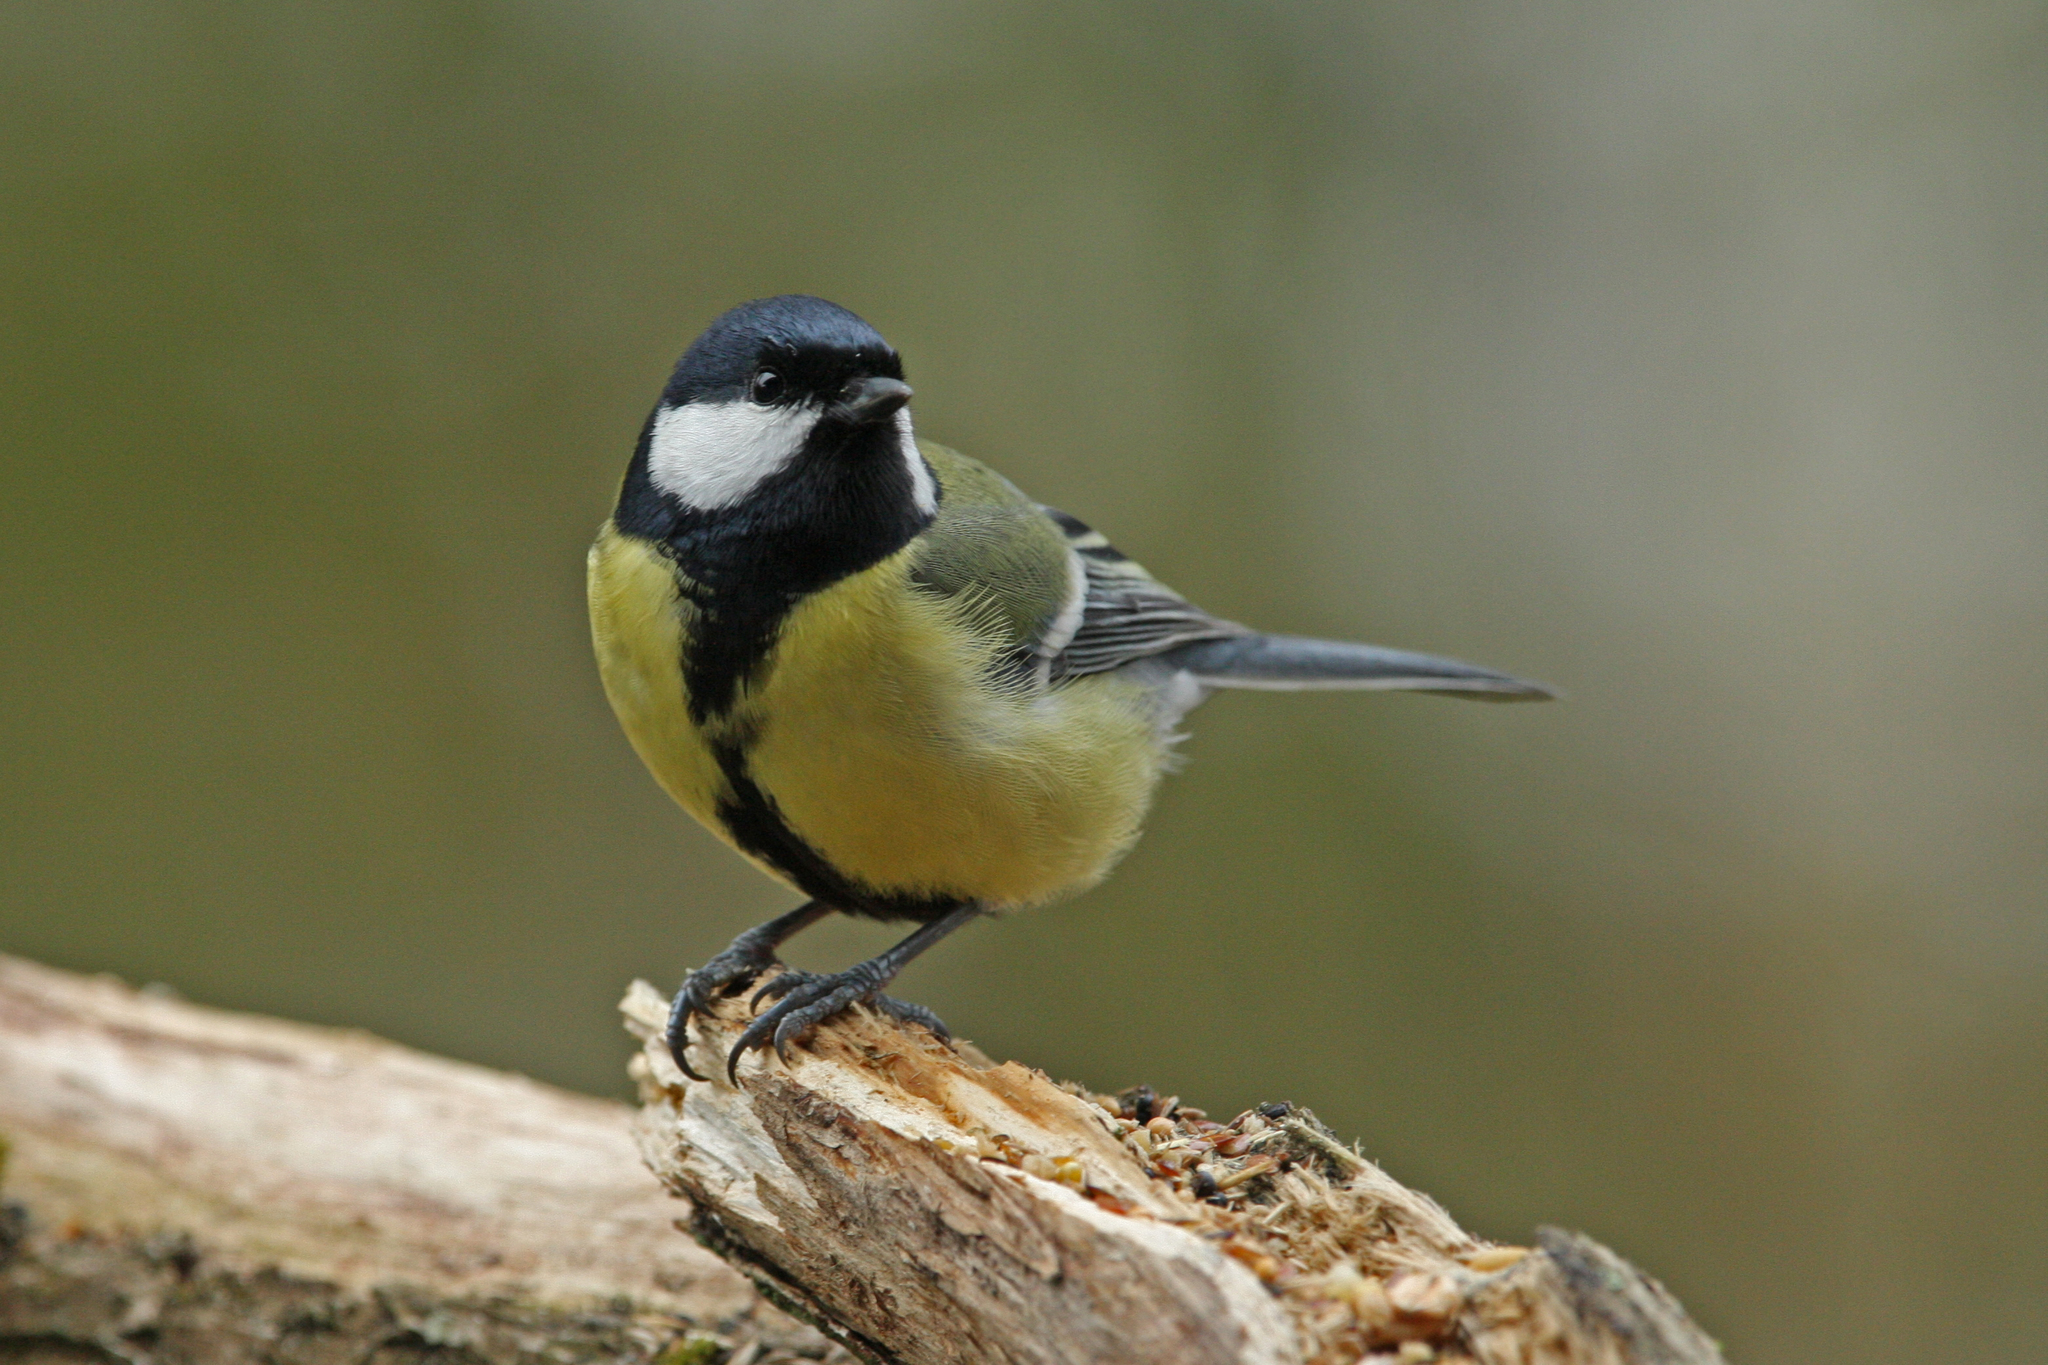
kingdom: Animalia
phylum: Chordata
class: Aves
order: Passeriformes
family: Paridae
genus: Parus
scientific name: Parus major
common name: Great tit
